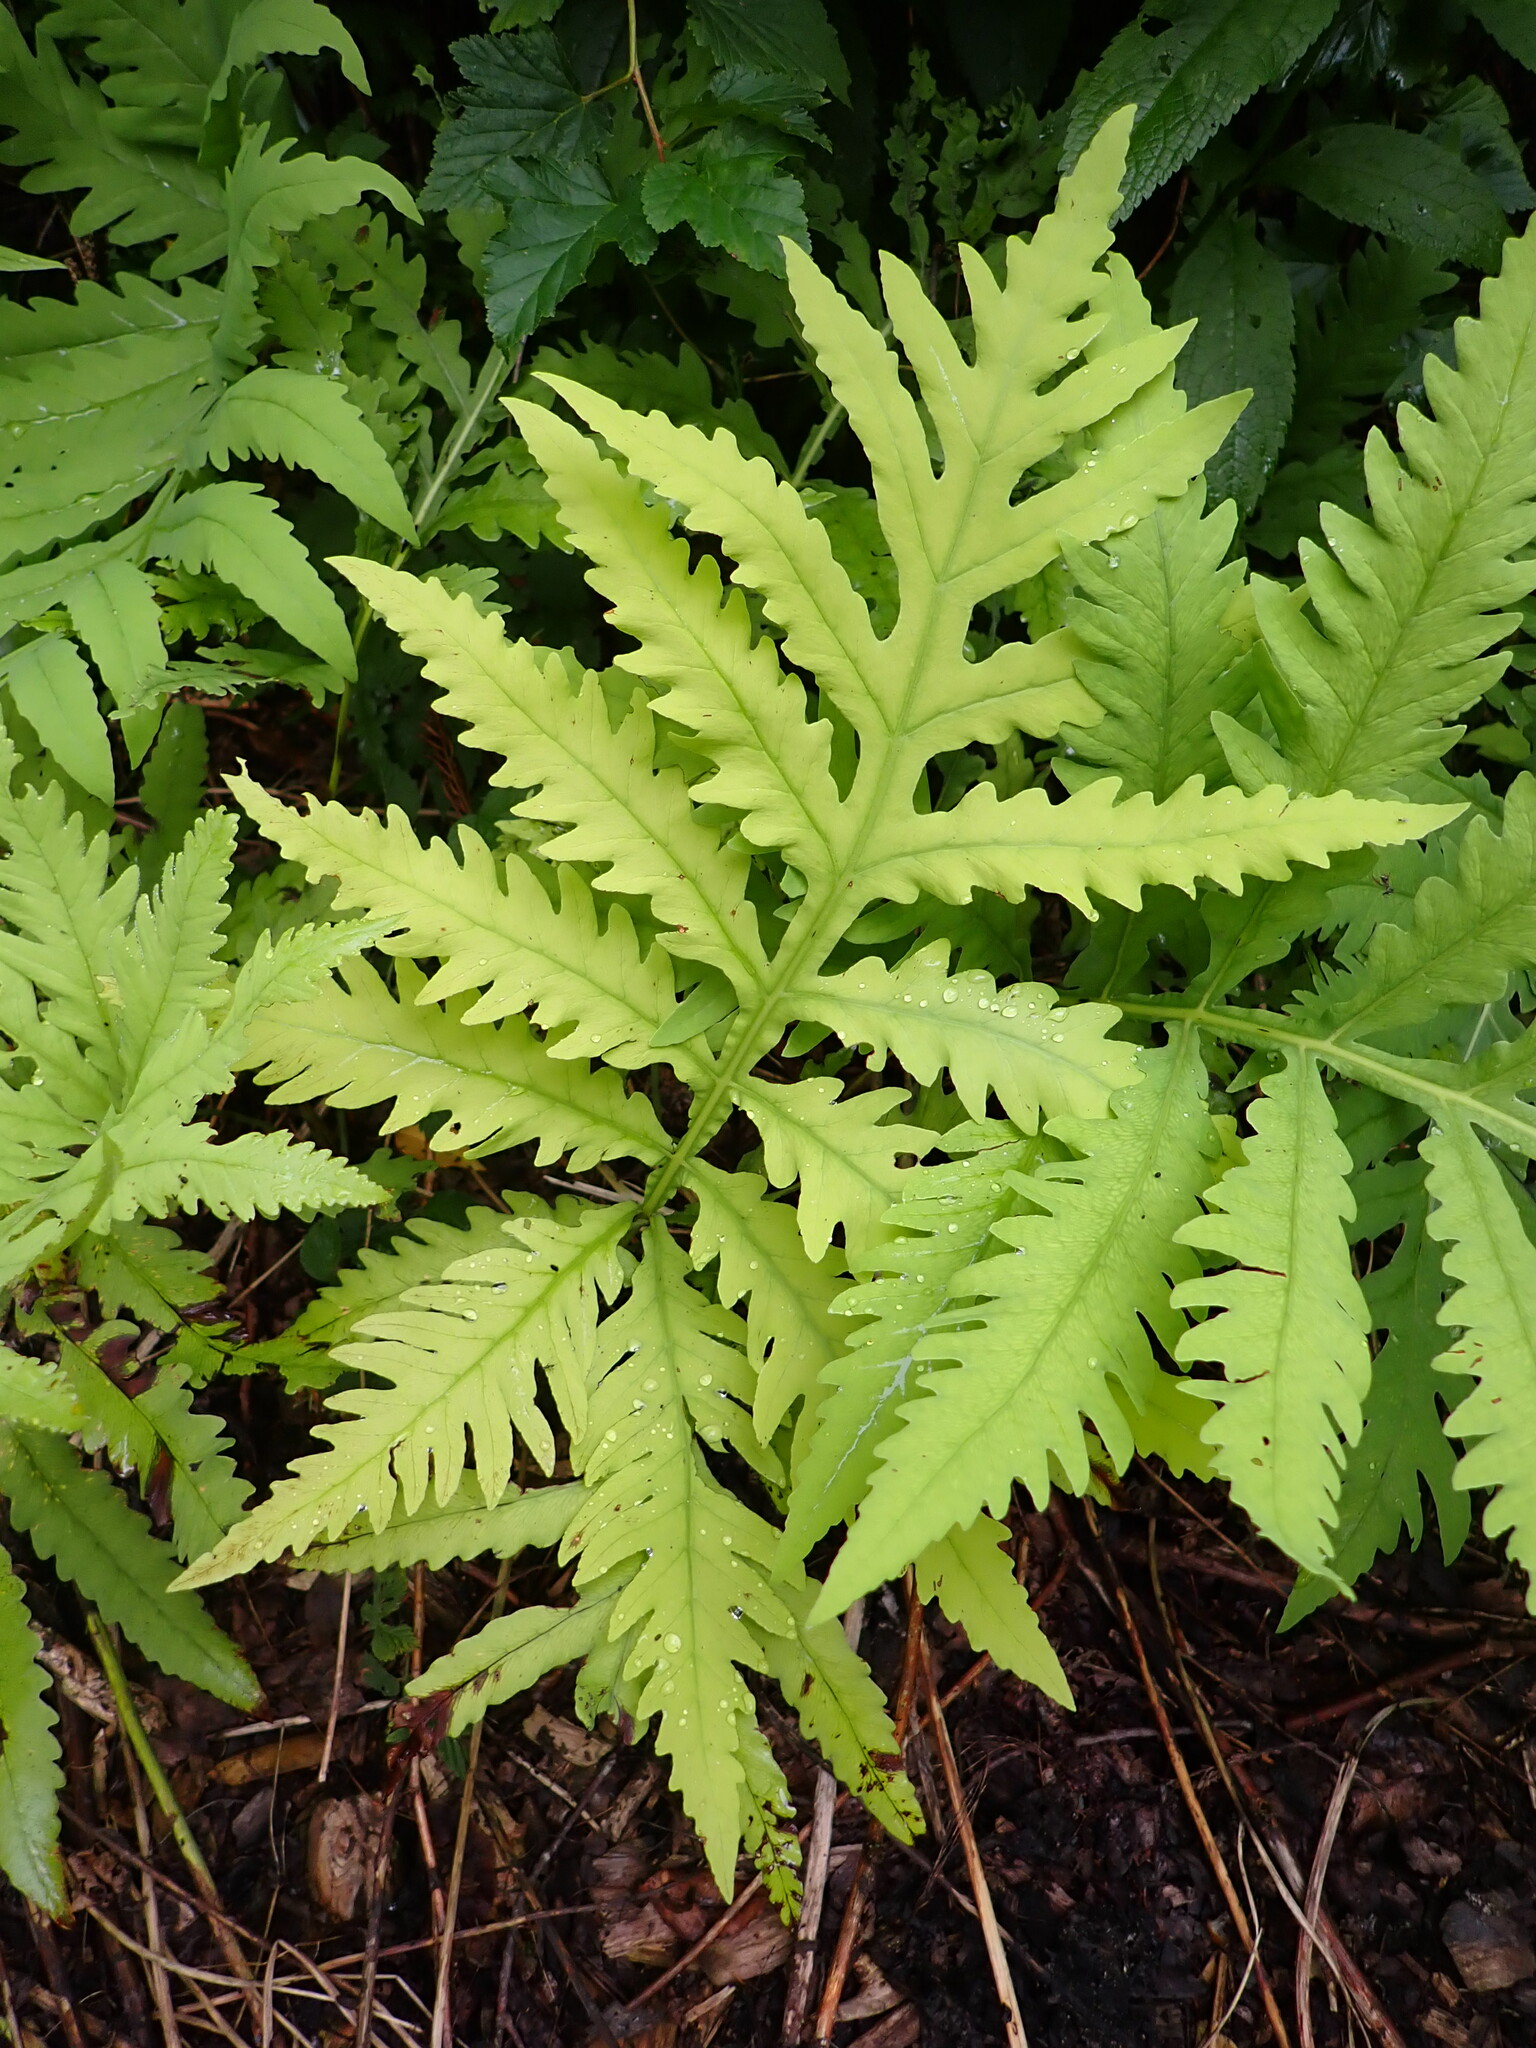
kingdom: Plantae
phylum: Tracheophyta
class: Polypodiopsida
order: Polypodiales
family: Onocleaceae
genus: Onoclea
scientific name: Onoclea sensibilis
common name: Sensitive fern
